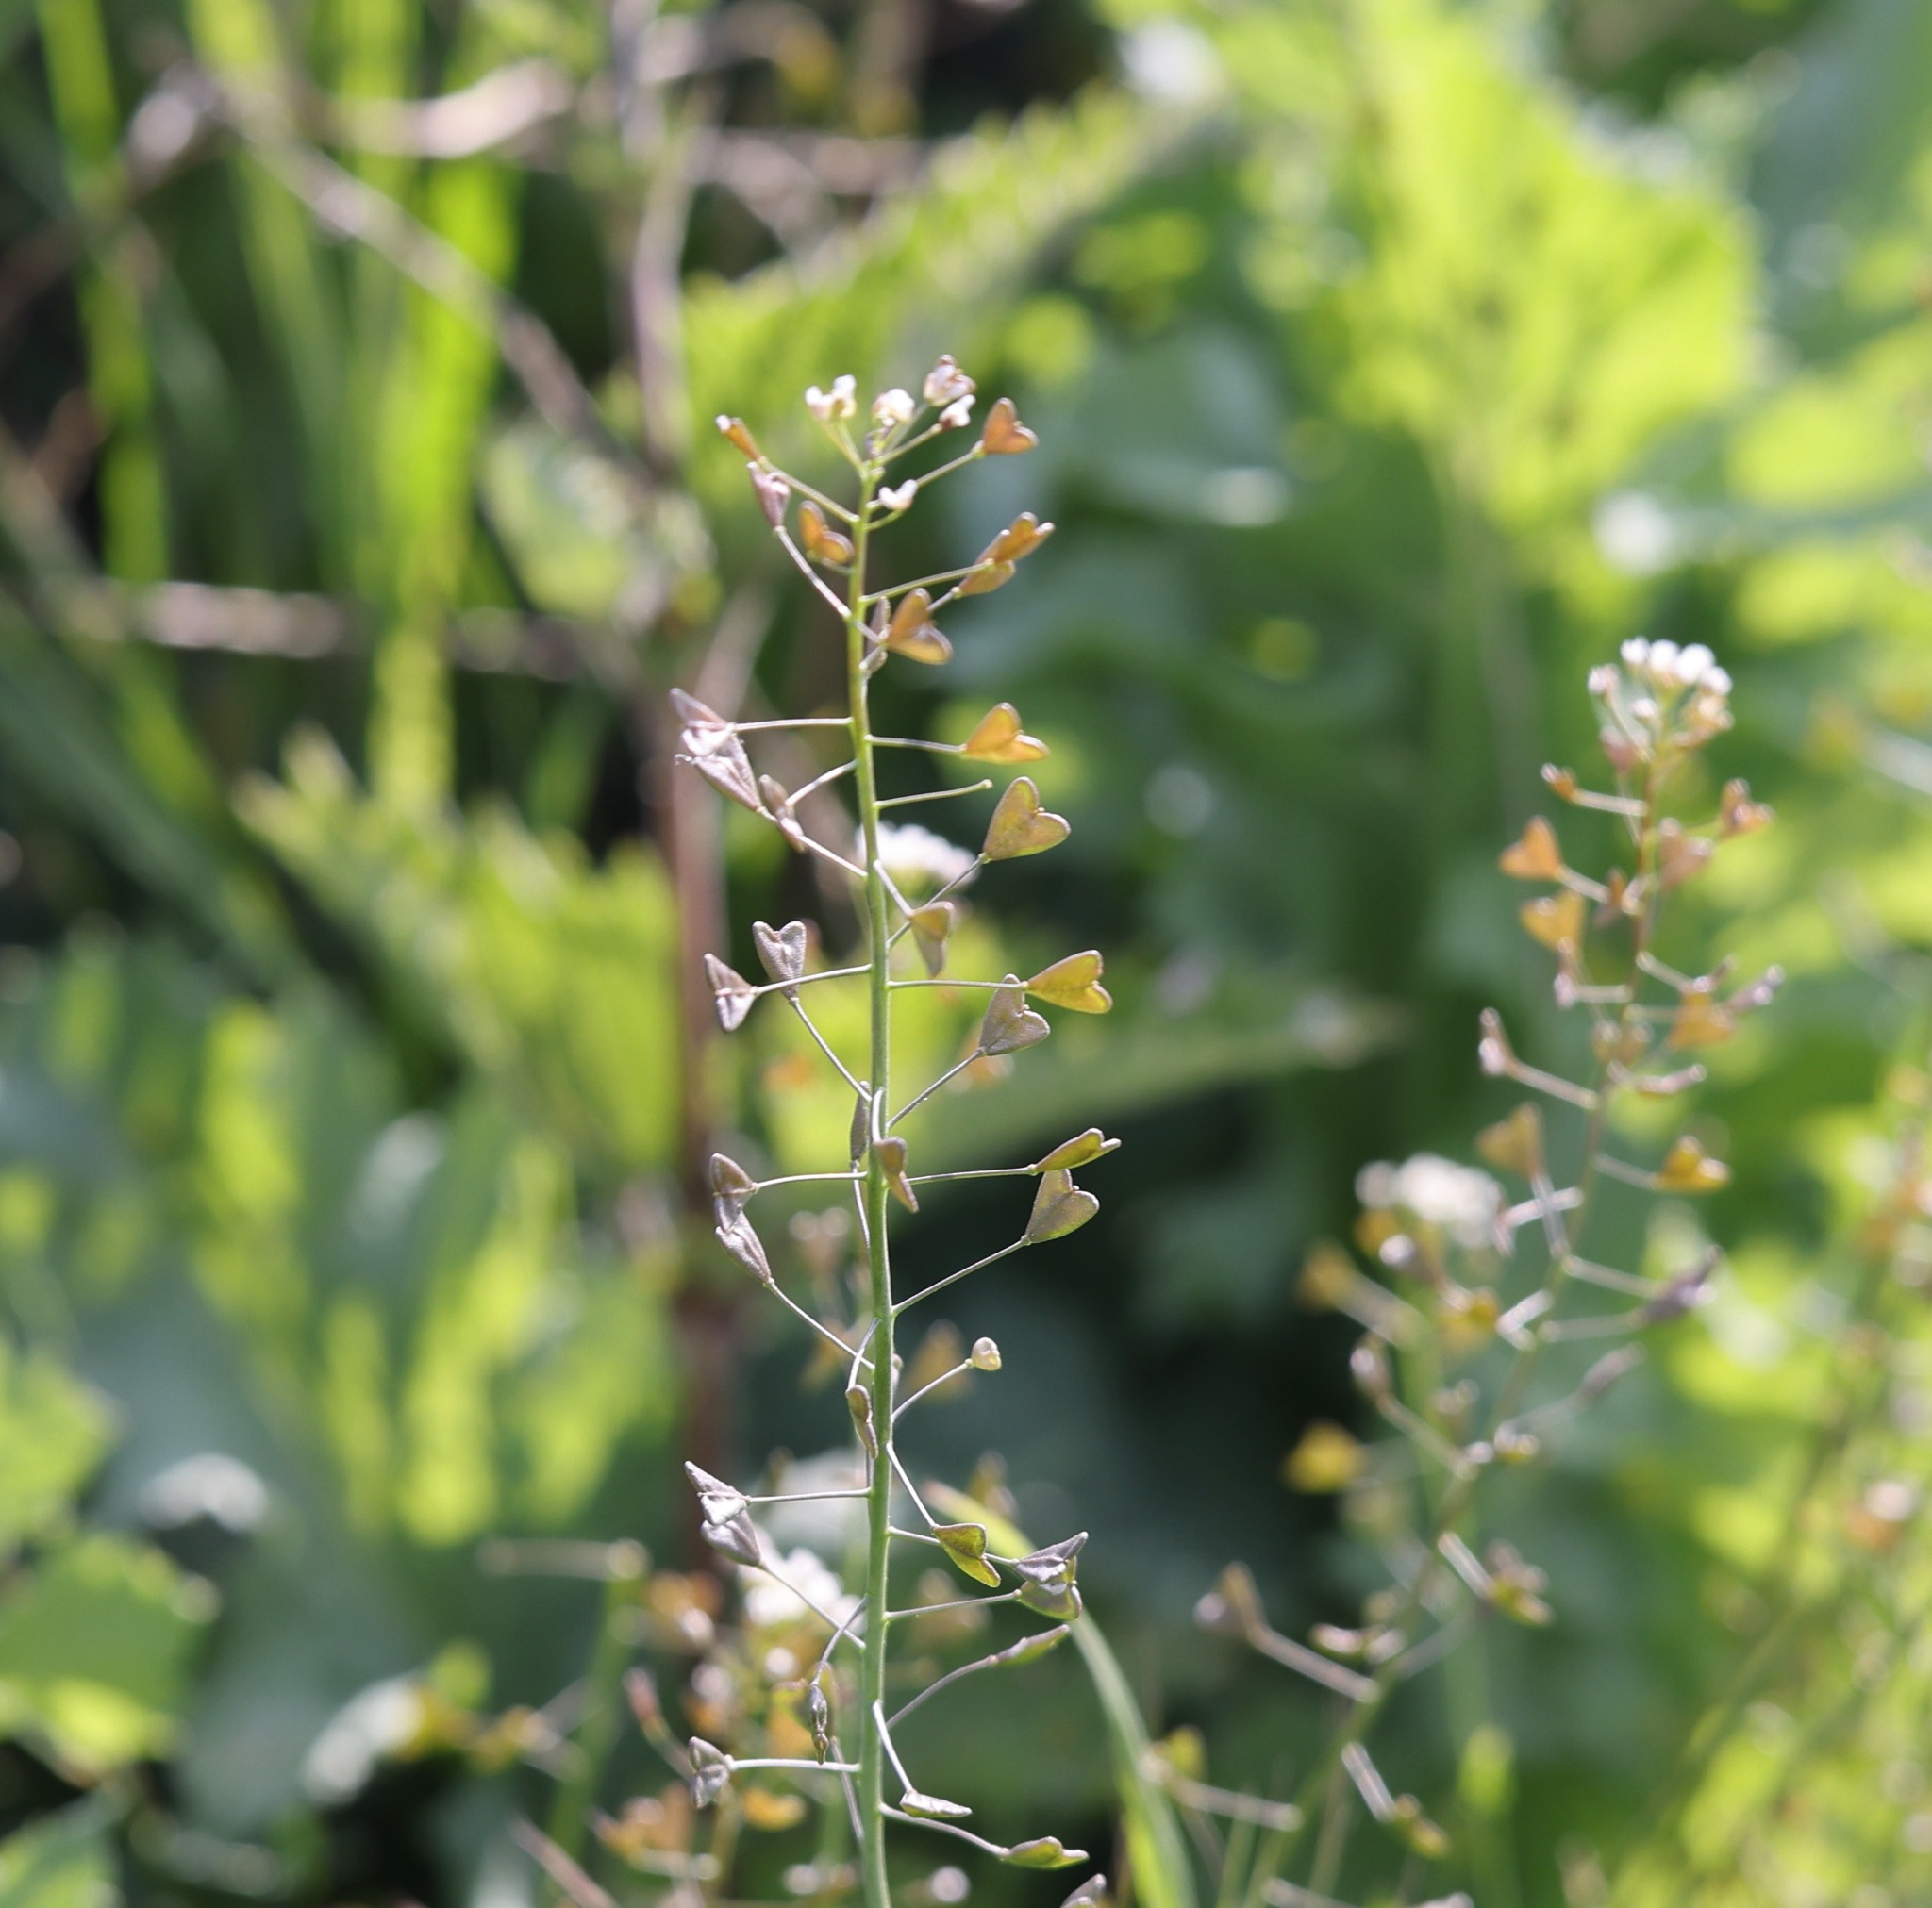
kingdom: Plantae
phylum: Tracheophyta
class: Magnoliopsida
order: Brassicales
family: Brassicaceae
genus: Capsella
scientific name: Capsella bursa-pastoris
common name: Shepherd's purse
